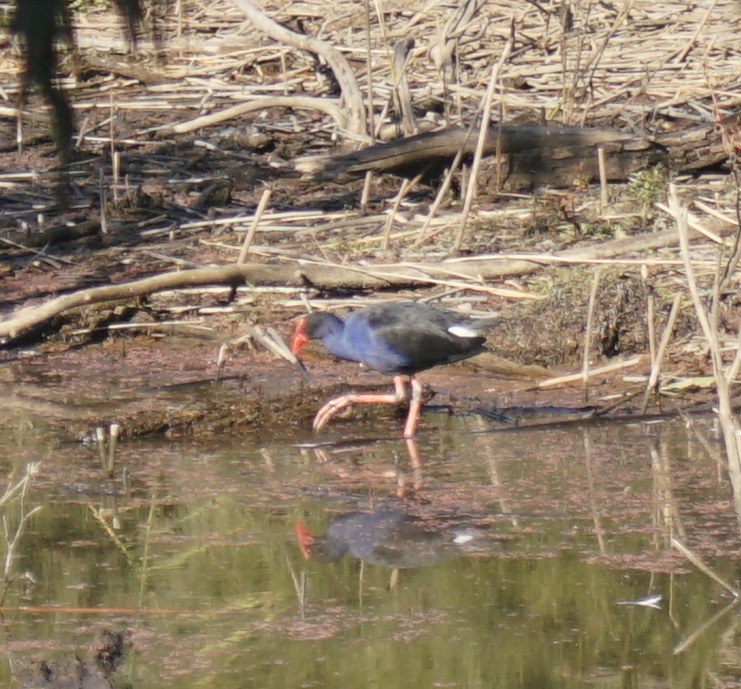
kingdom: Animalia
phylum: Chordata
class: Aves
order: Gruiformes
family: Rallidae
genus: Porphyrio
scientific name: Porphyrio melanotus
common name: Australasian swamphen
